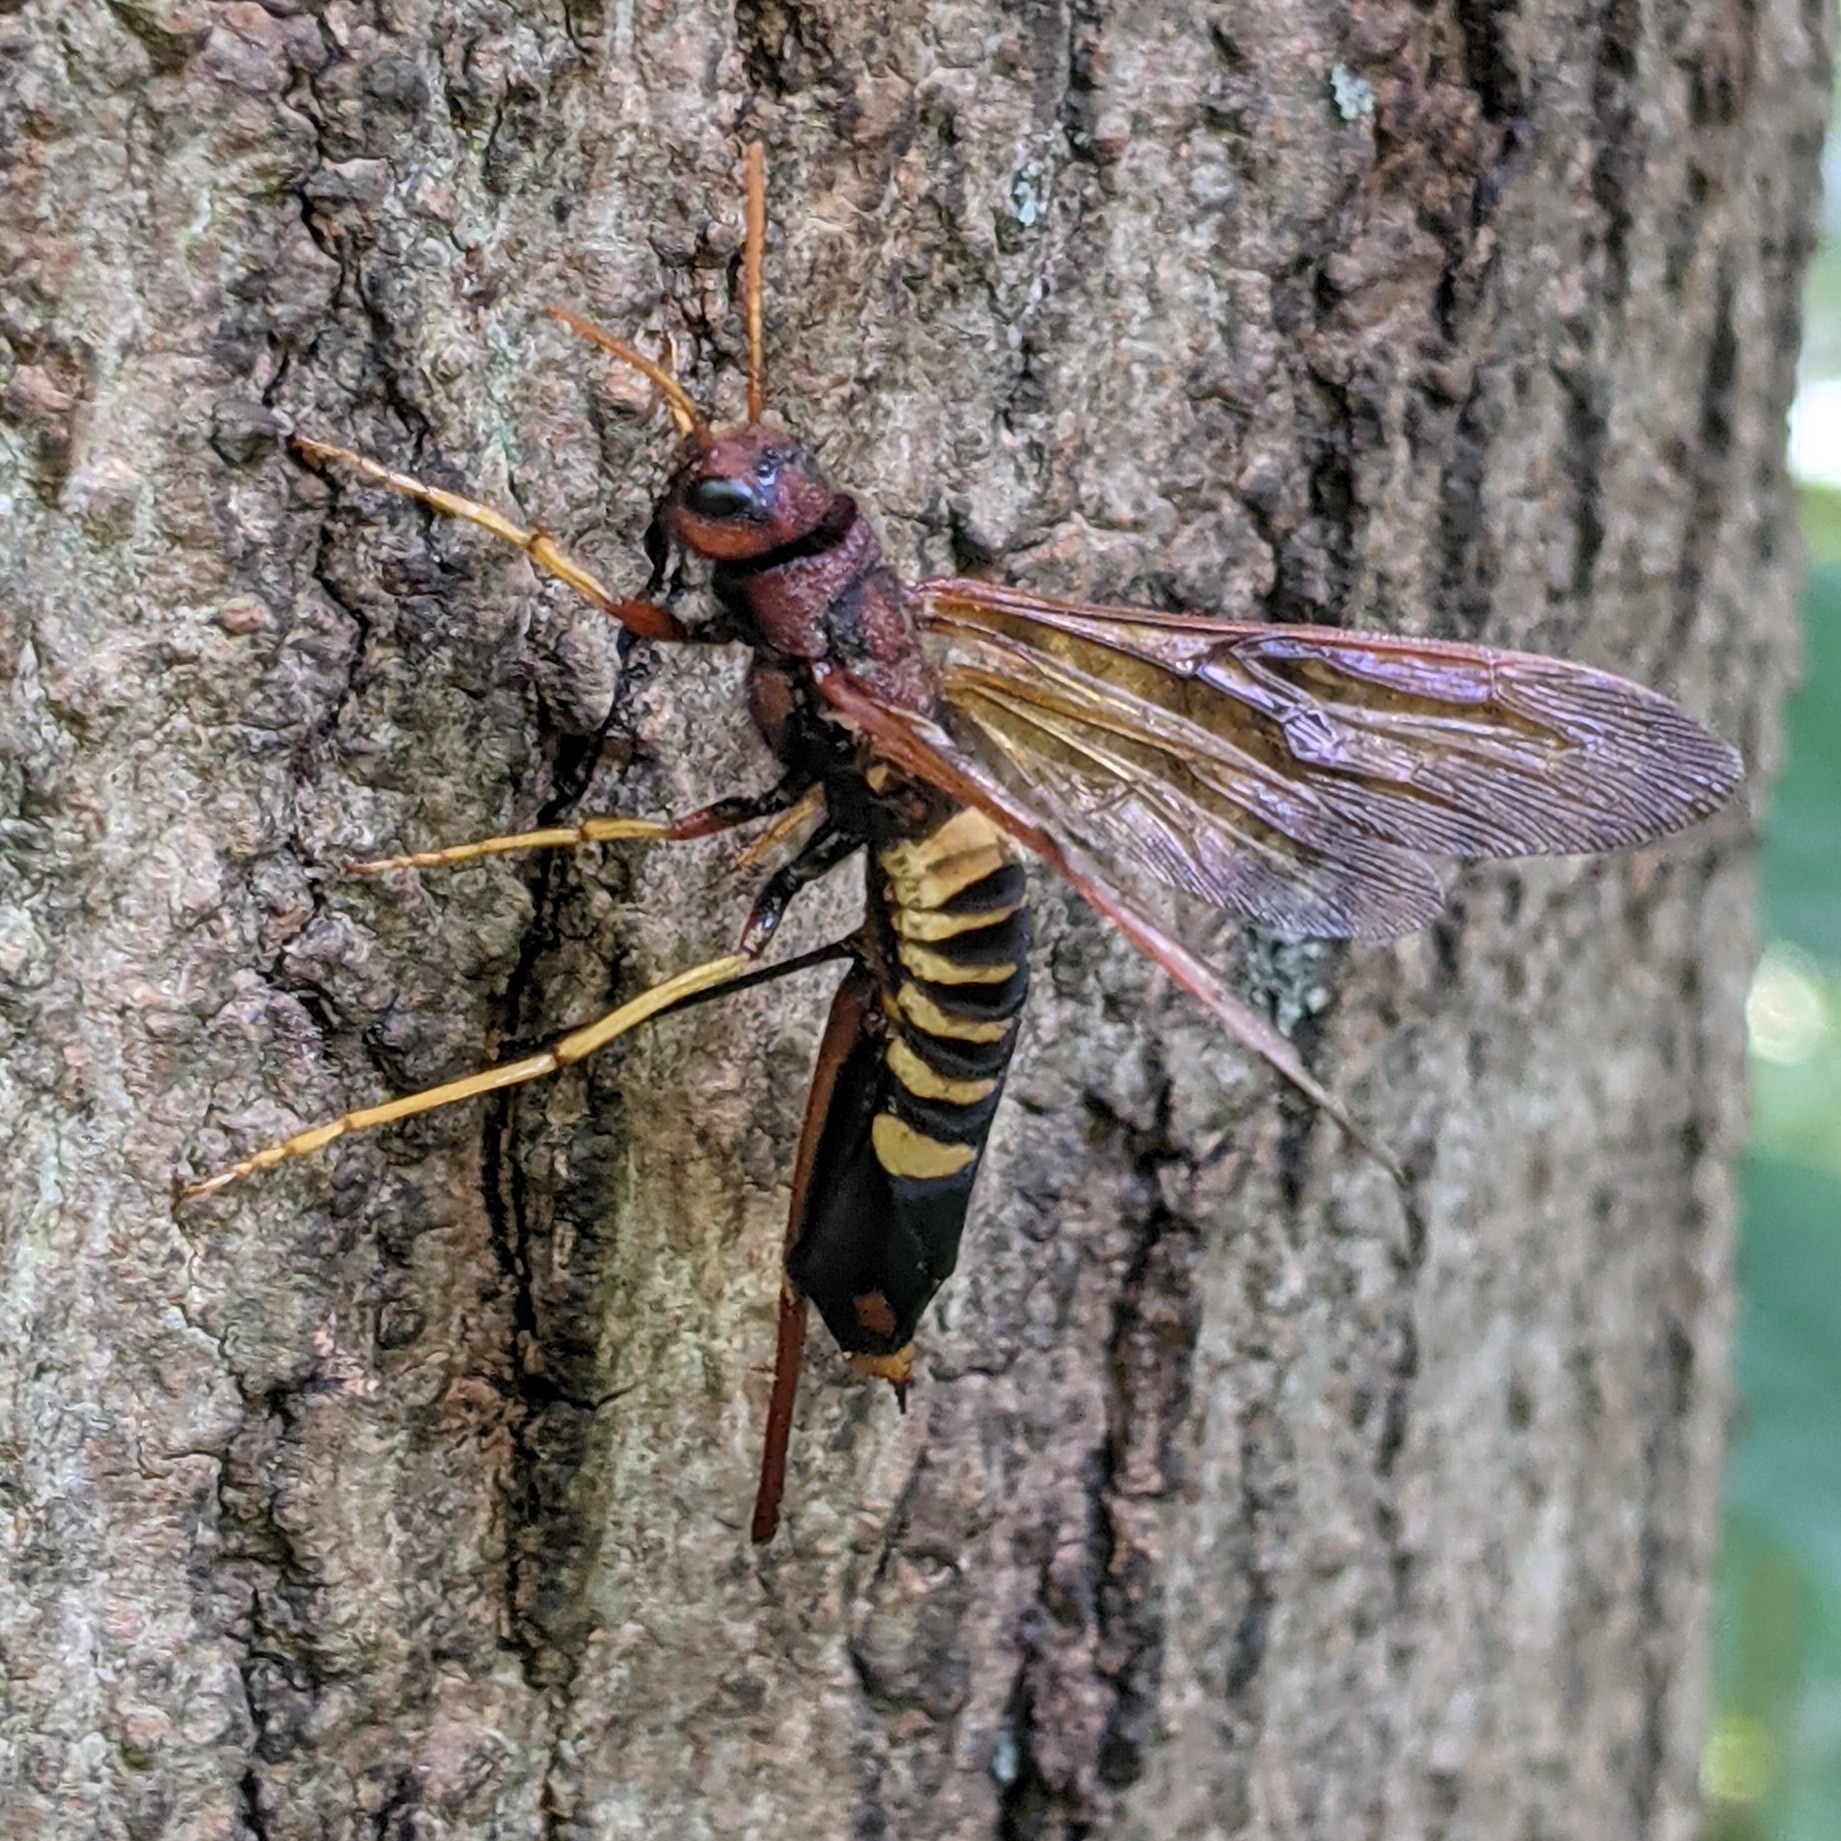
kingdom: Animalia
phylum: Arthropoda
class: Insecta
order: Hymenoptera
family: Siricidae
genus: Tremex
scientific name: Tremex columba
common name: Wasp
